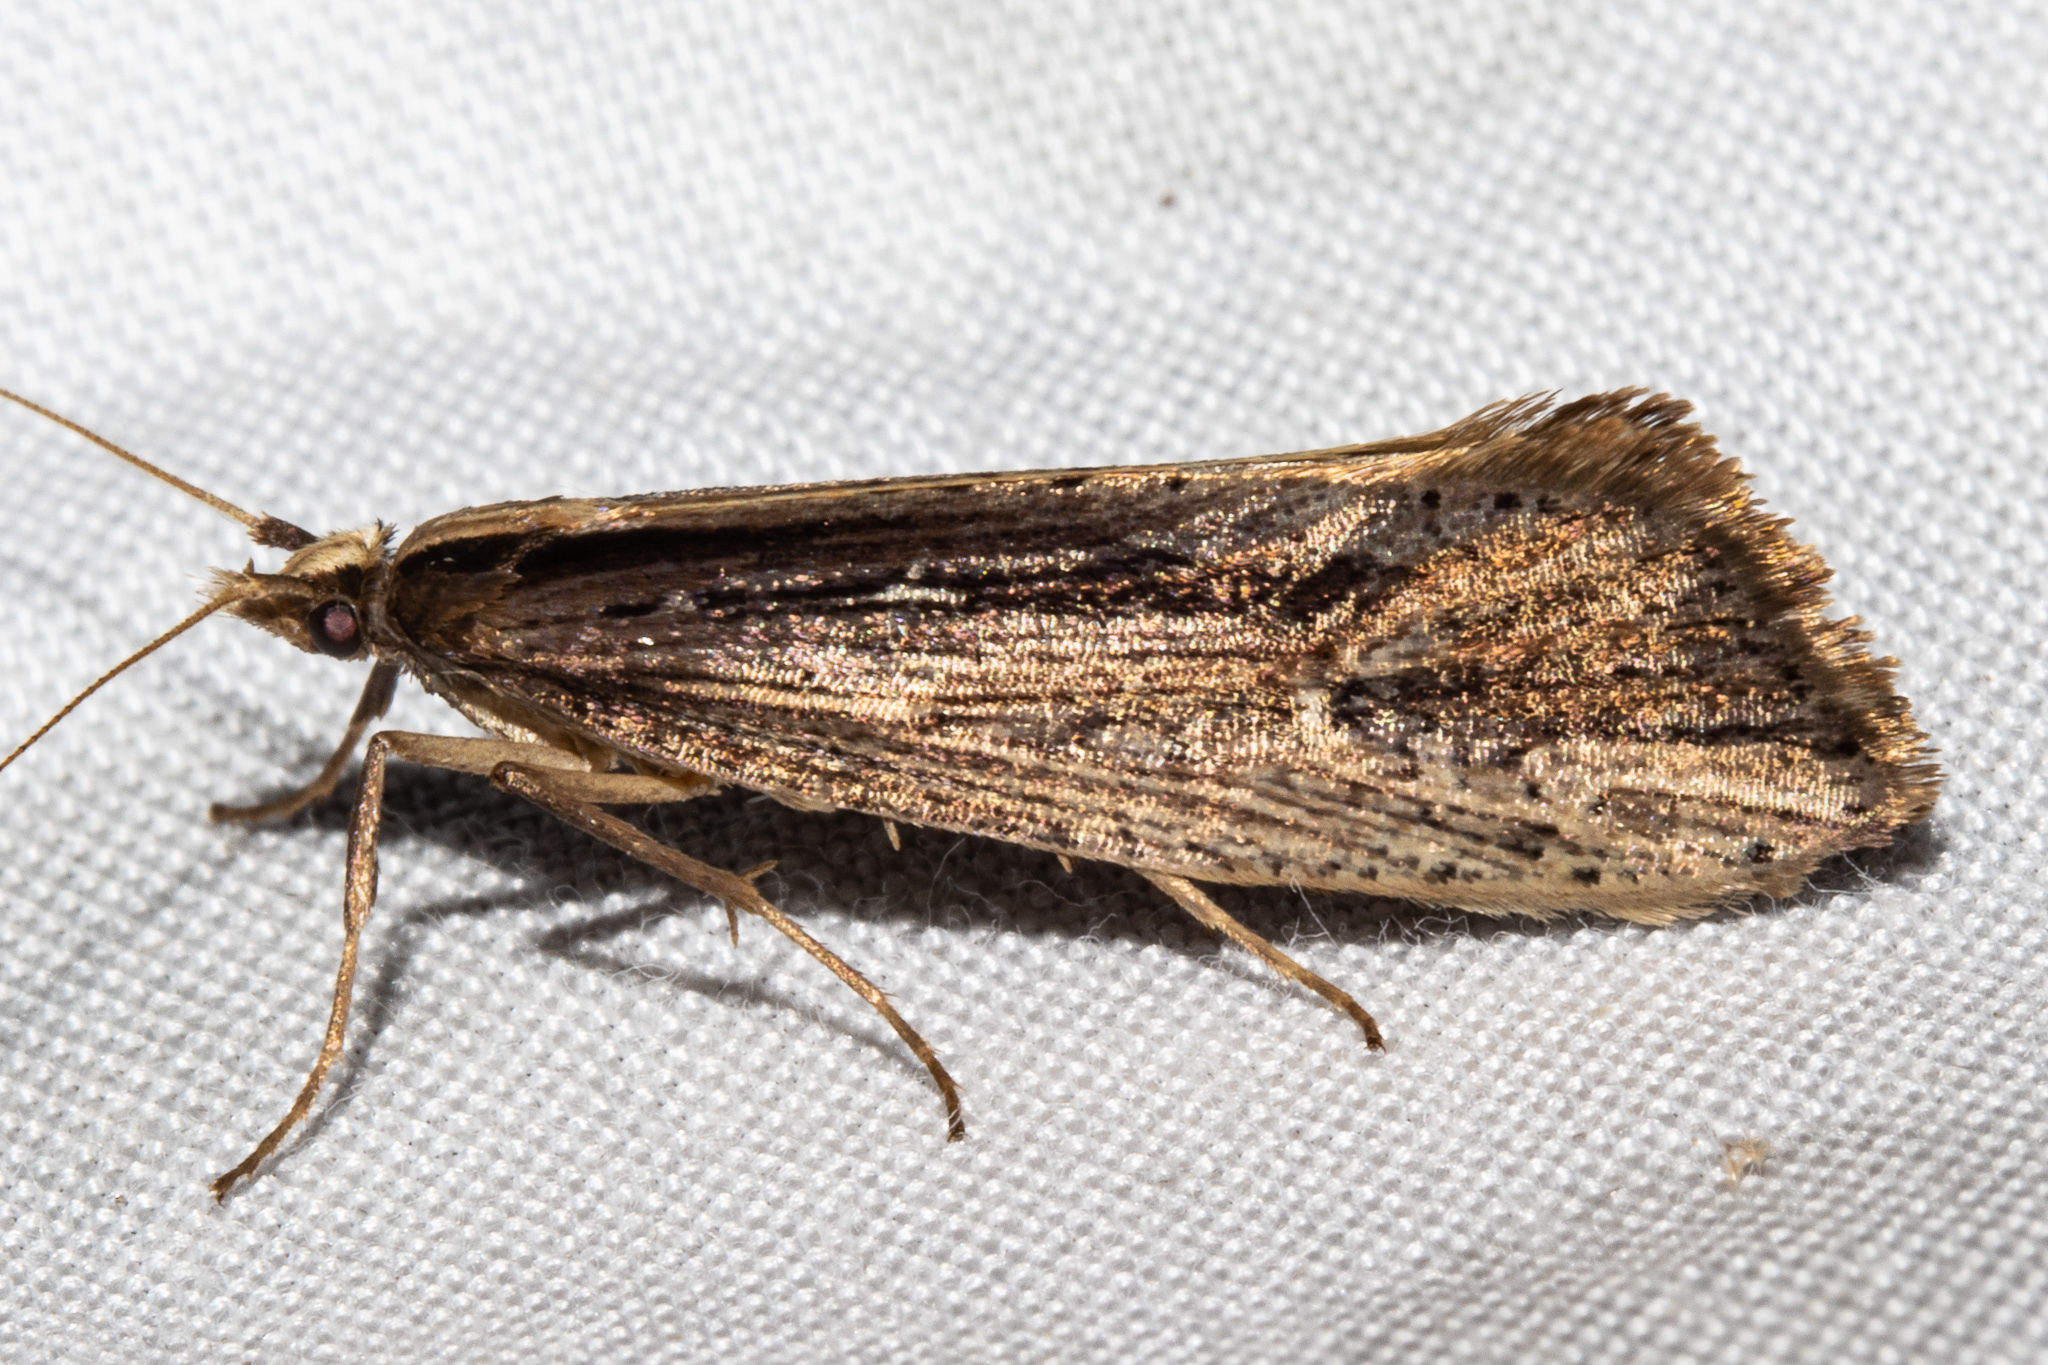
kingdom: Animalia
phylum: Arthropoda
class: Insecta
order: Lepidoptera
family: Plutellidae
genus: Proditrix
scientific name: Proditrix megalynta
